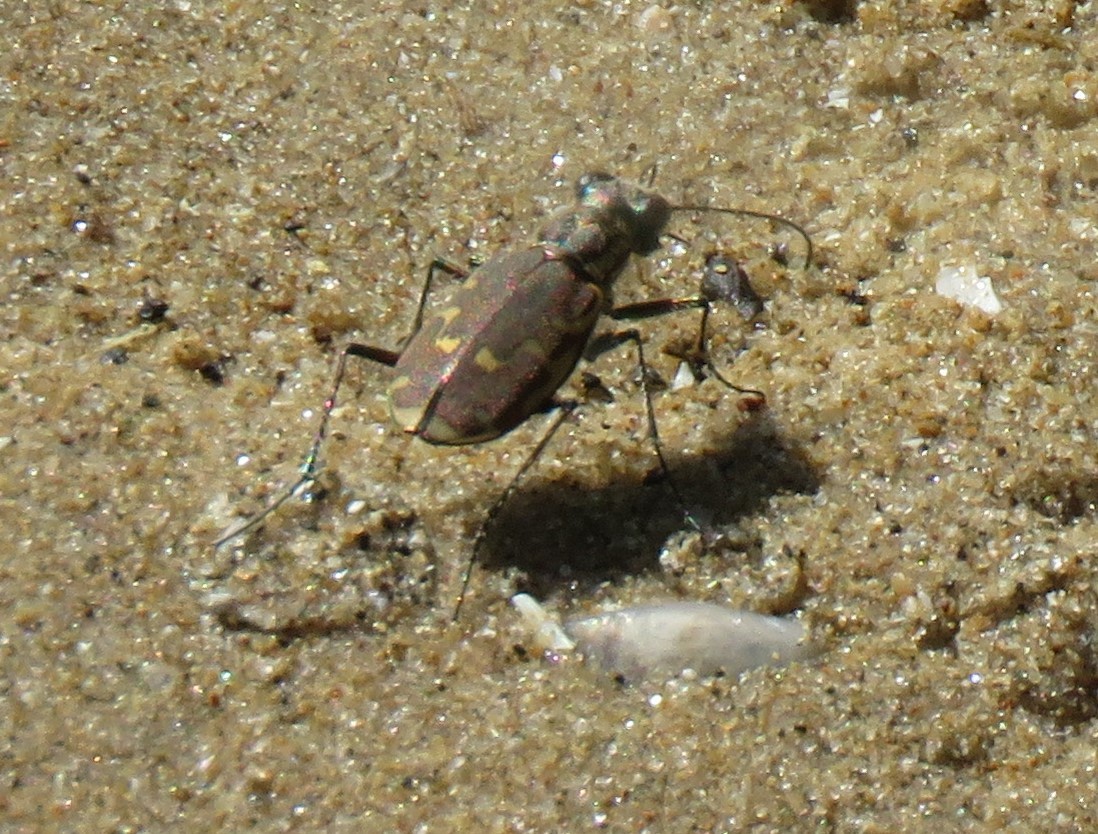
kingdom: Animalia
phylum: Arthropoda
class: Insecta
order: Coleoptera
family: Carabidae
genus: Cicindela
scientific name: Cicindela repanda
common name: Bronzed tiger beetle
